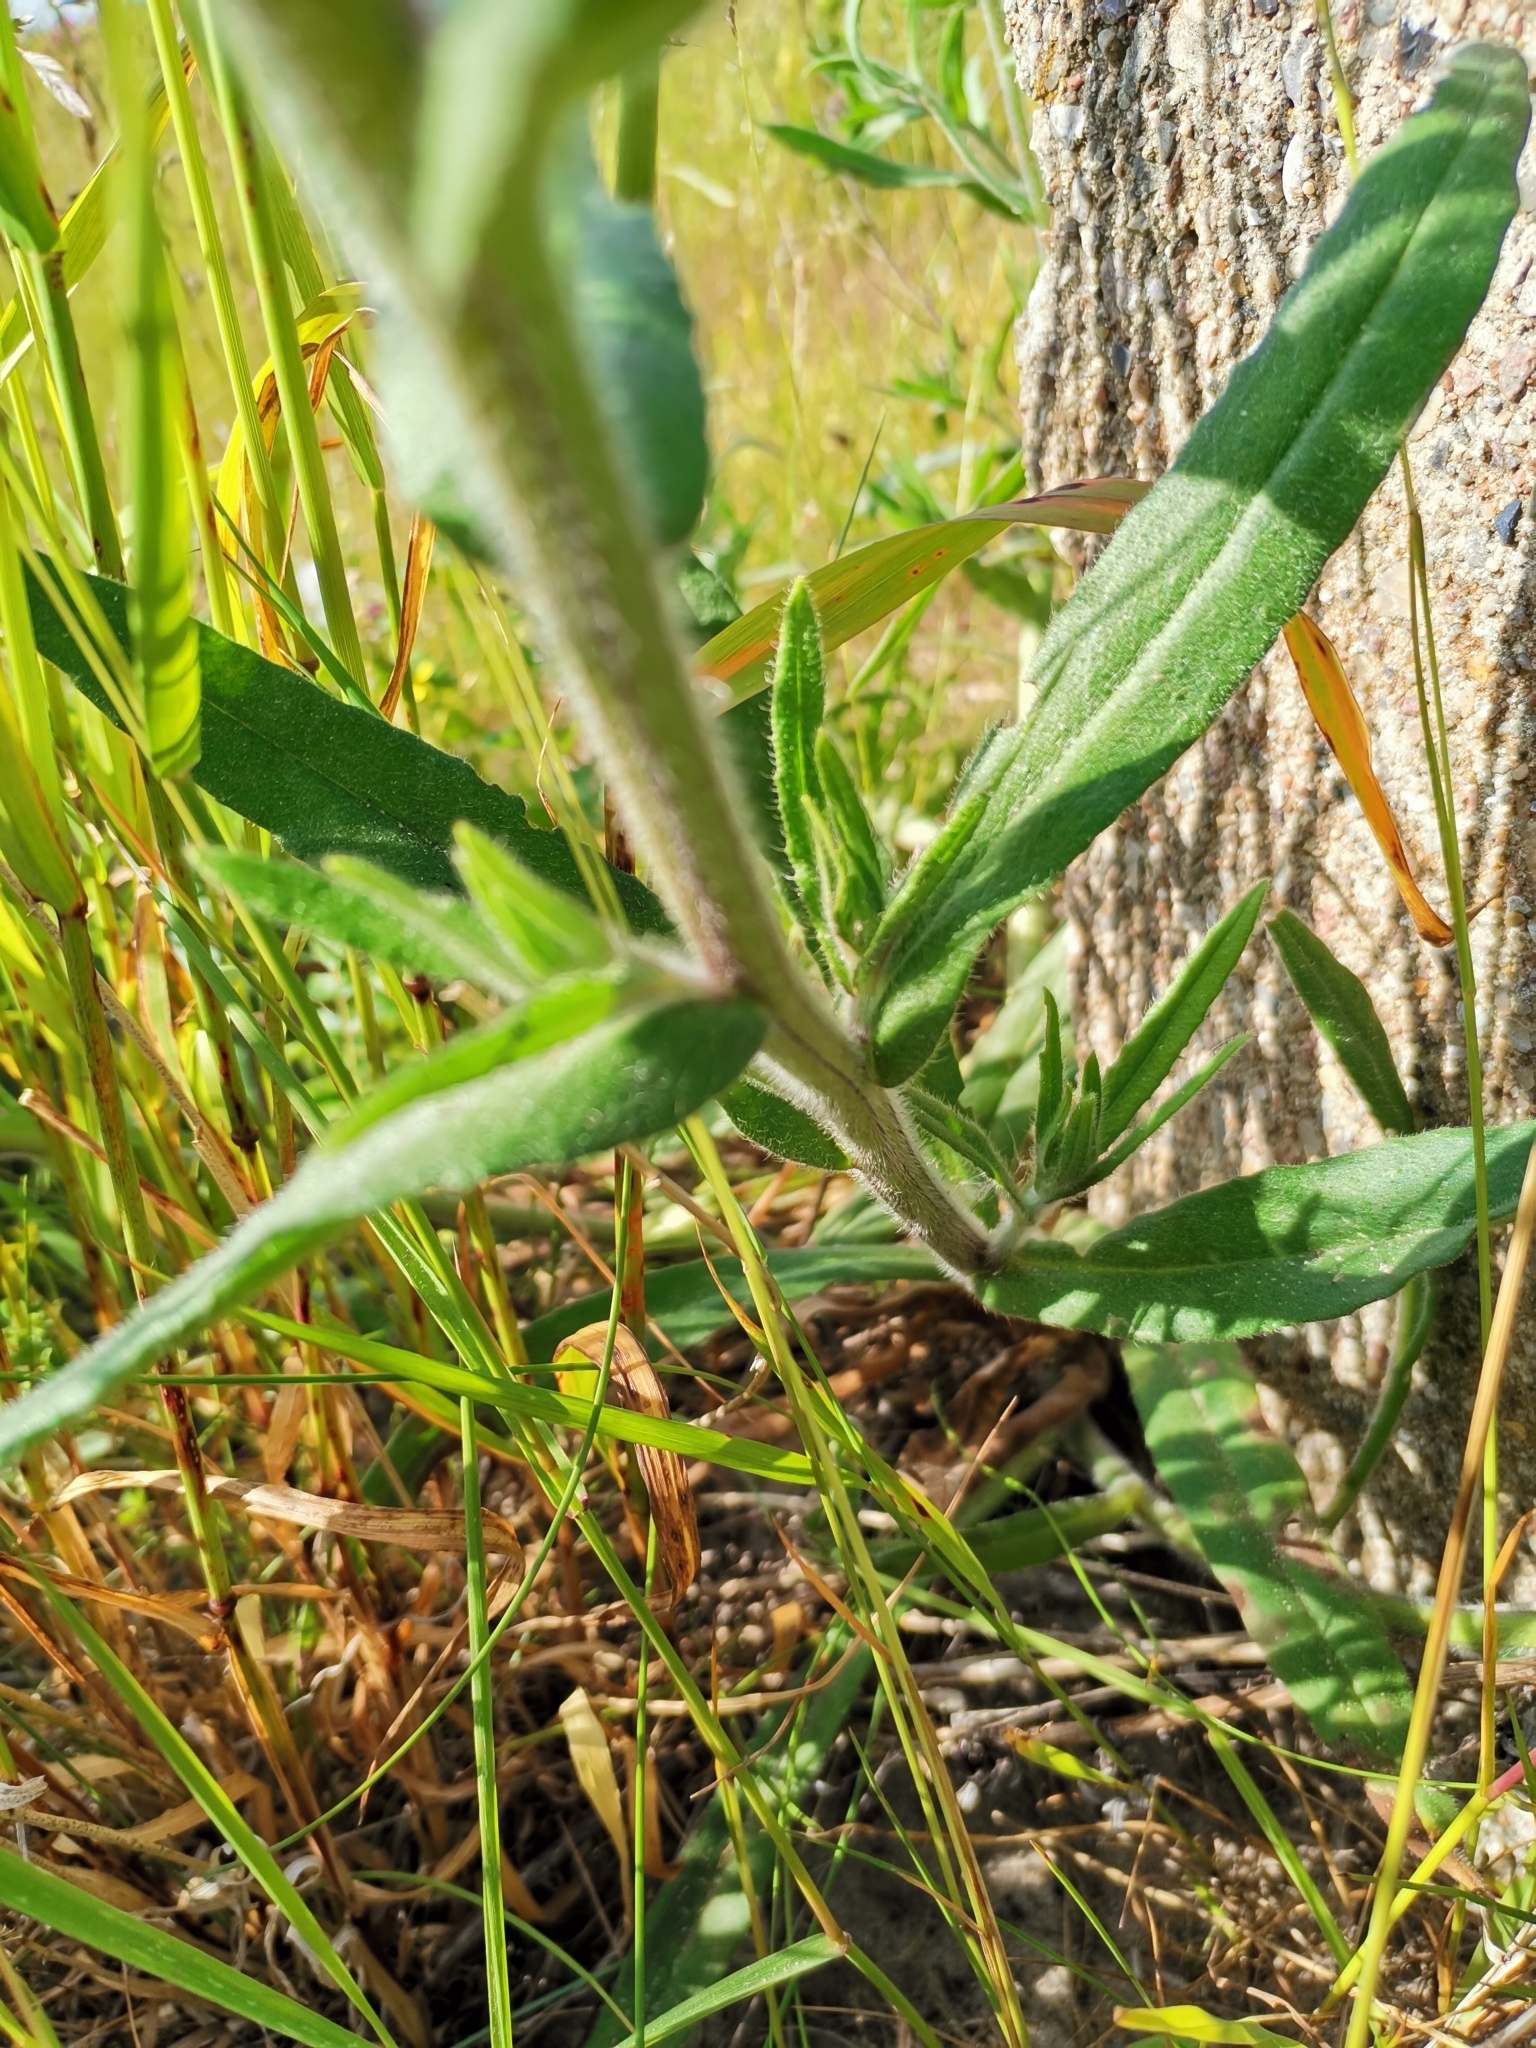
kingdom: Plantae
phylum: Tracheophyta
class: Magnoliopsida
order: Boraginales
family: Boraginaceae
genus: Anchusa
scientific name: Anchusa officinalis
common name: Alkanet
